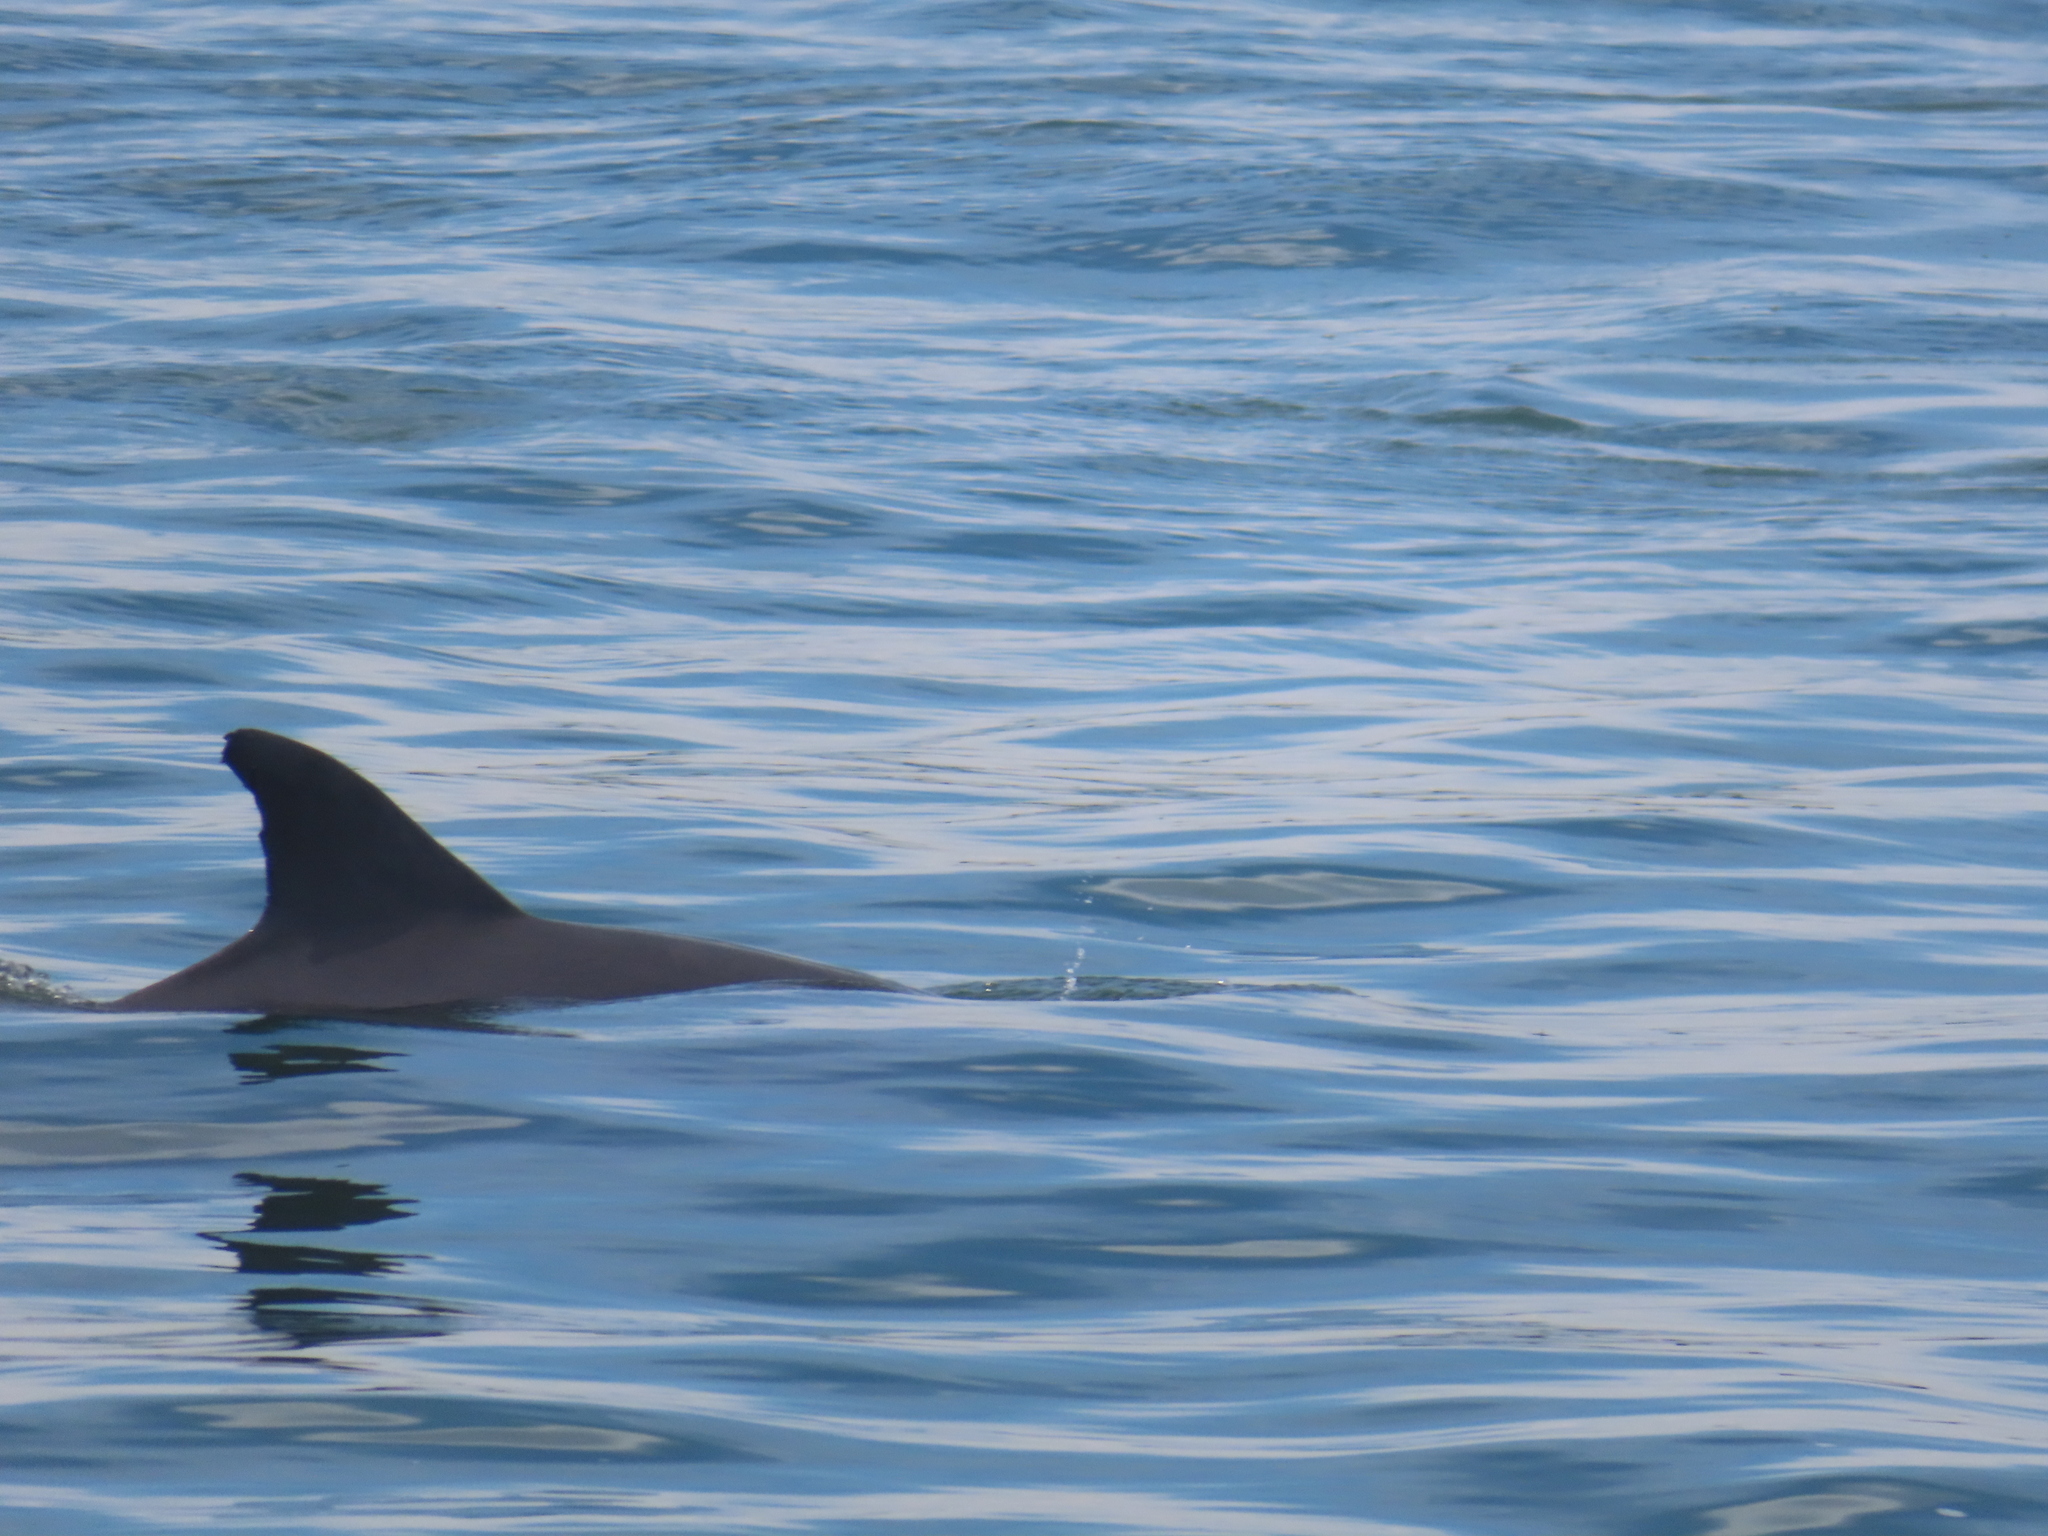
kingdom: Animalia
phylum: Chordata
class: Mammalia
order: Cetacea
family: Delphinidae
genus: Tursiops
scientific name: Tursiops truncatus
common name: Bottlenose dolphin
